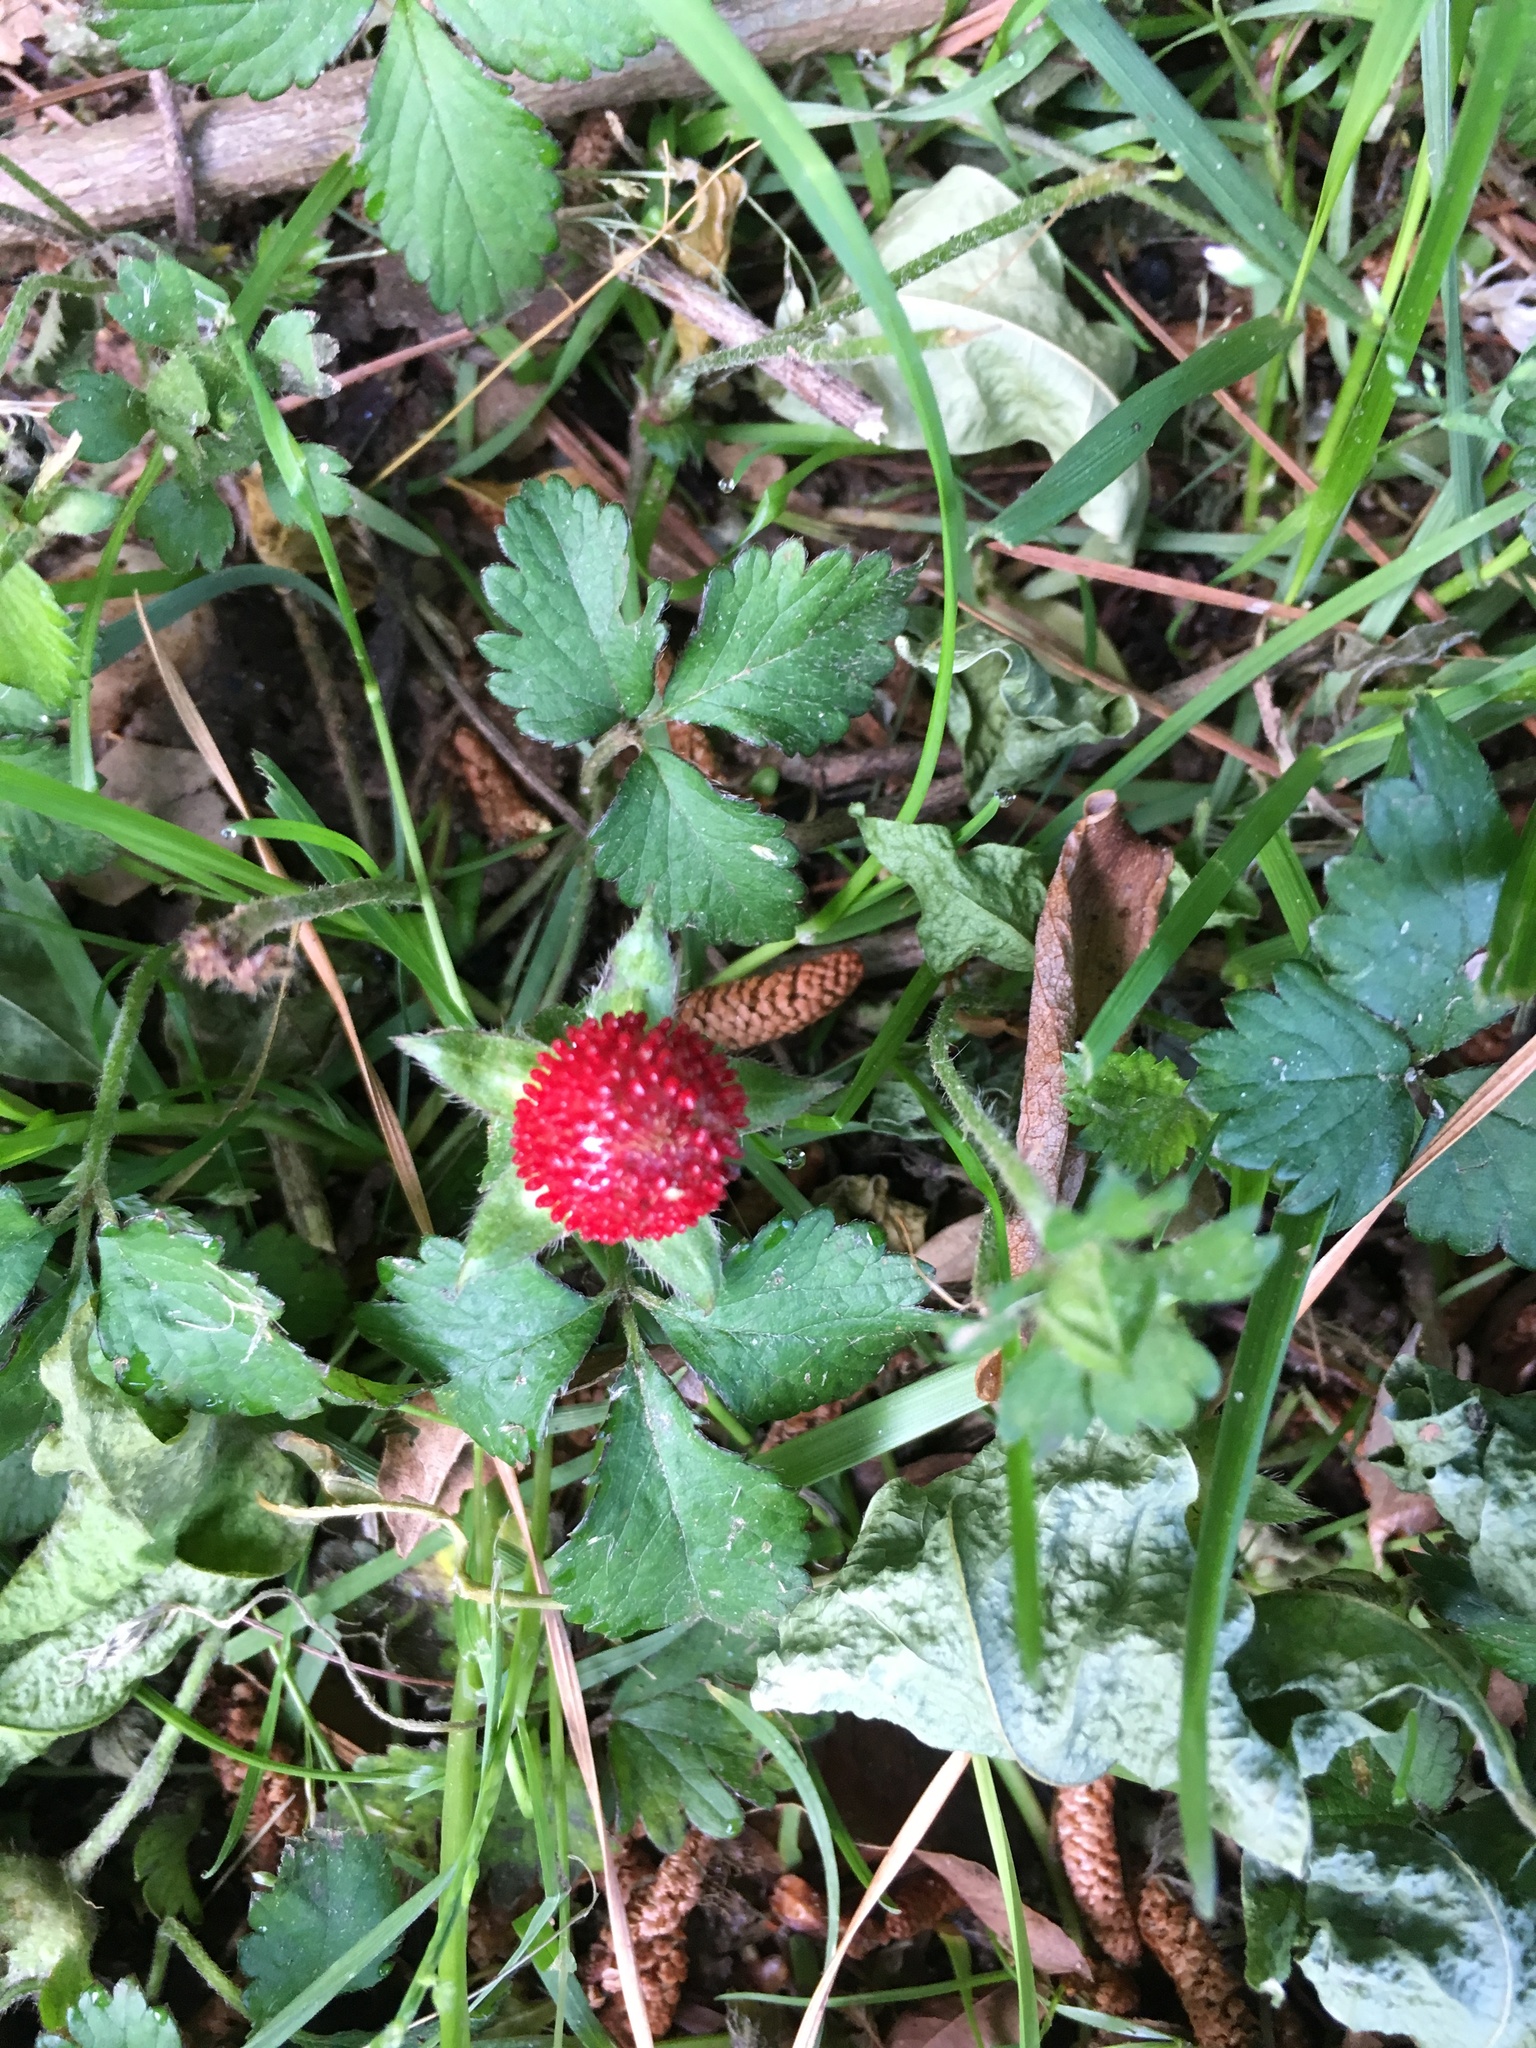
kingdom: Plantae
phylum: Tracheophyta
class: Magnoliopsida
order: Rosales
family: Rosaceae
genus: Potentilla
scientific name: Potentilla indica
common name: Yellow-flowered strawberry
